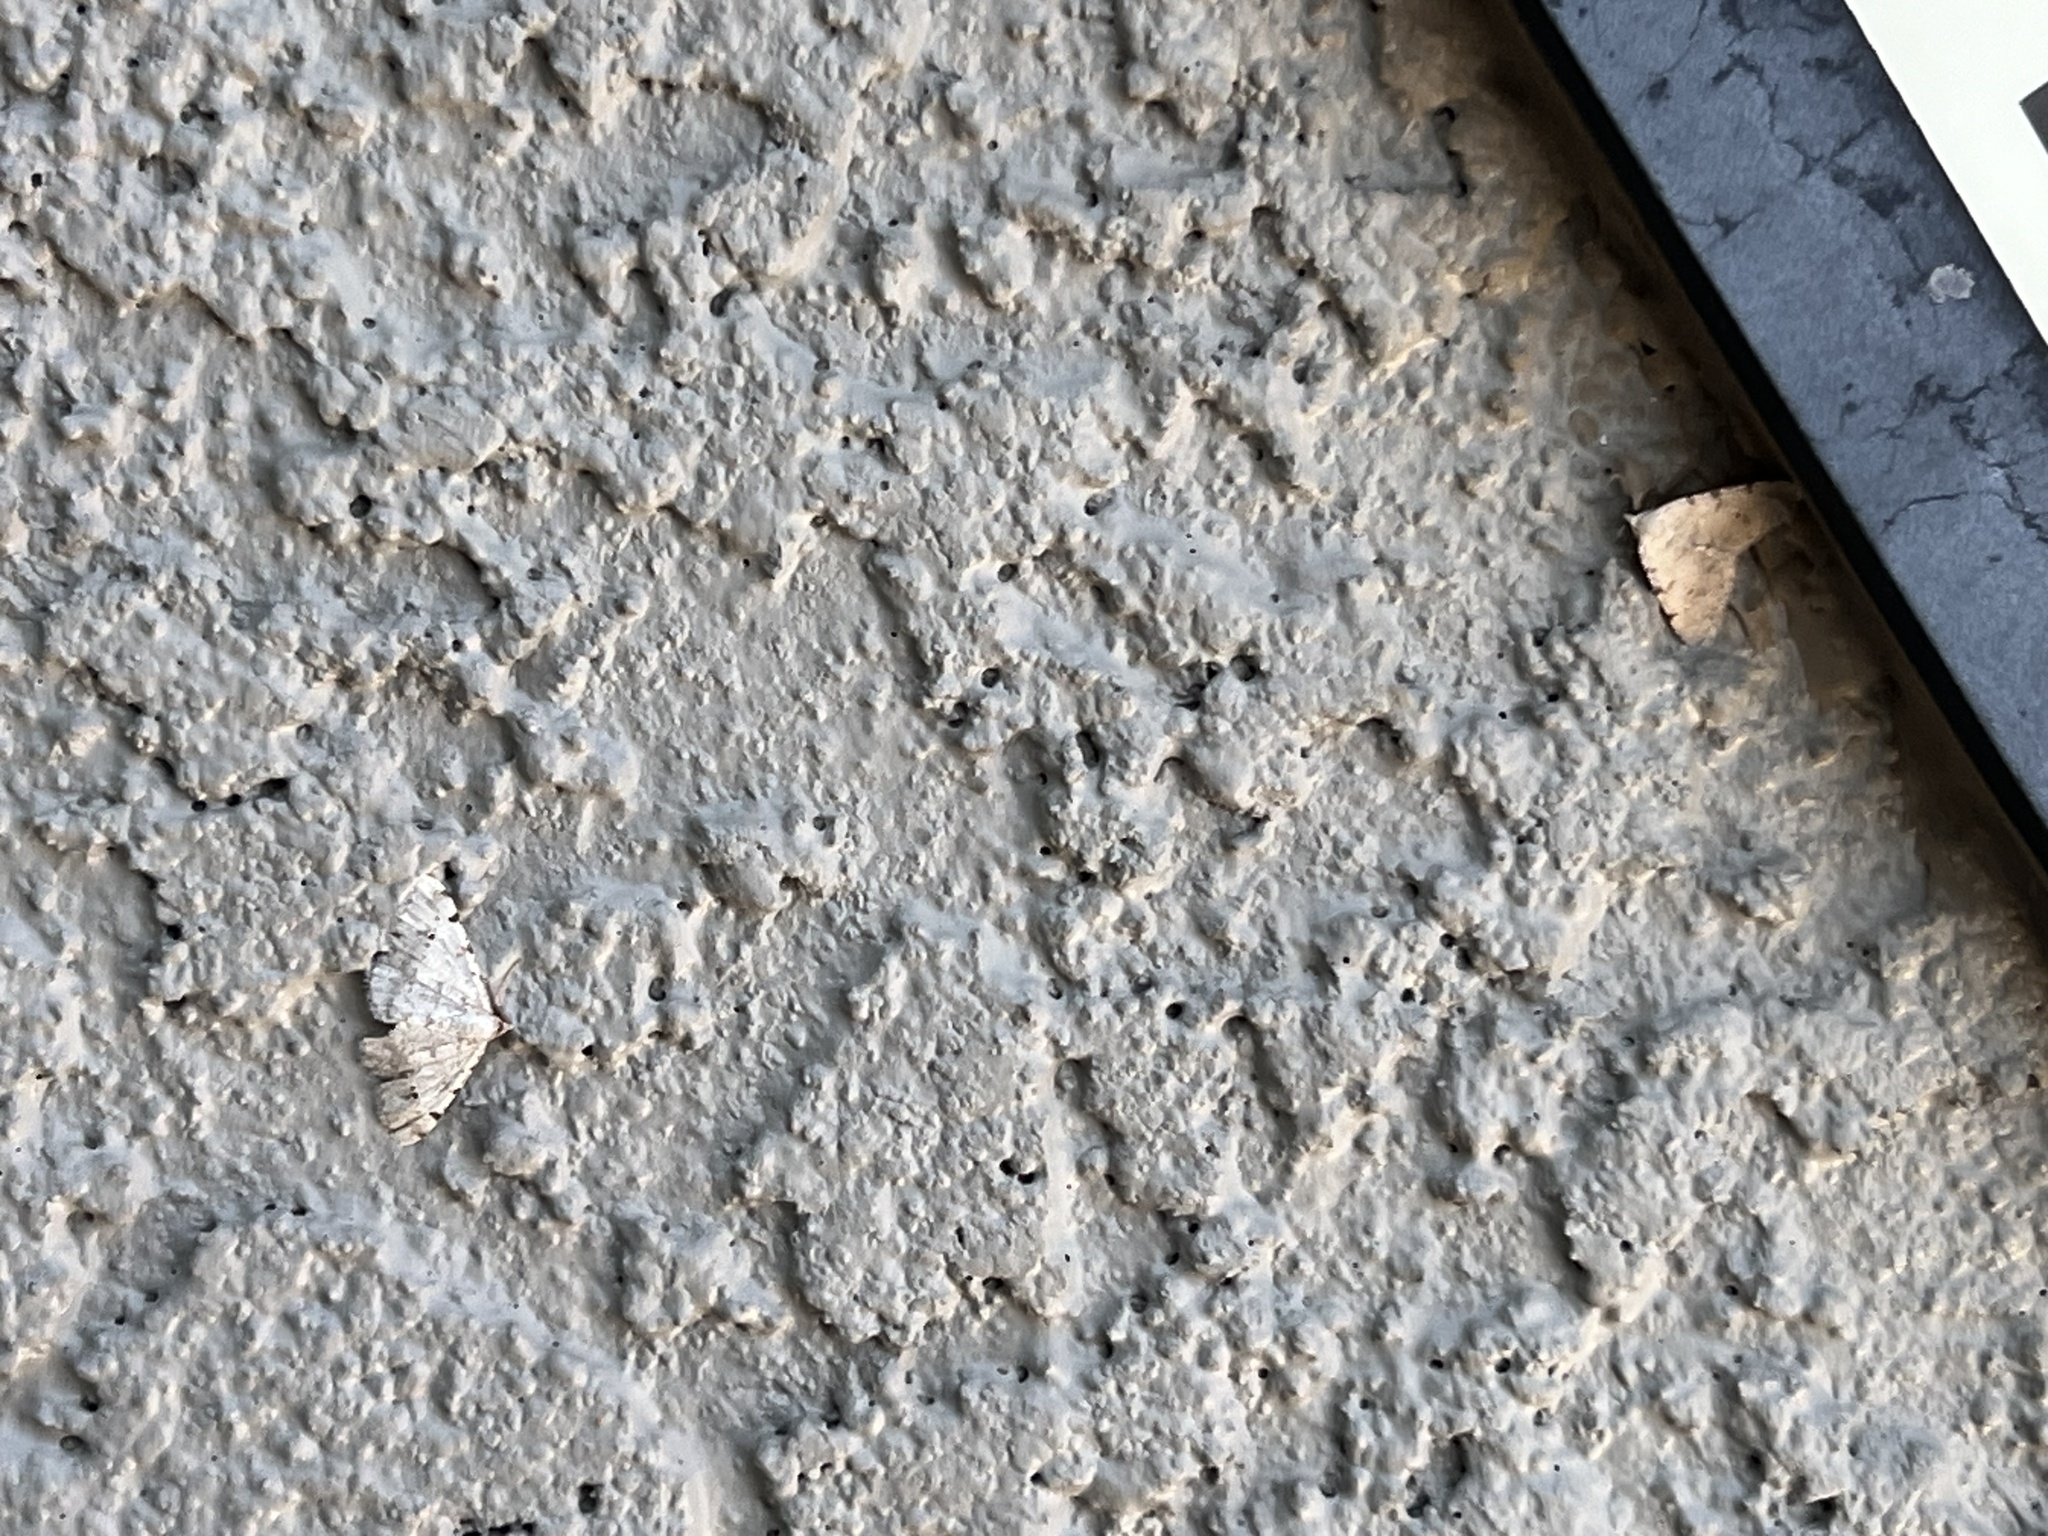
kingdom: Animalia
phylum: Arthropoda
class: Insecta
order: Lepidoptera
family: Geometridae
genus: Digrammia
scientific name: Digrammia colorata
